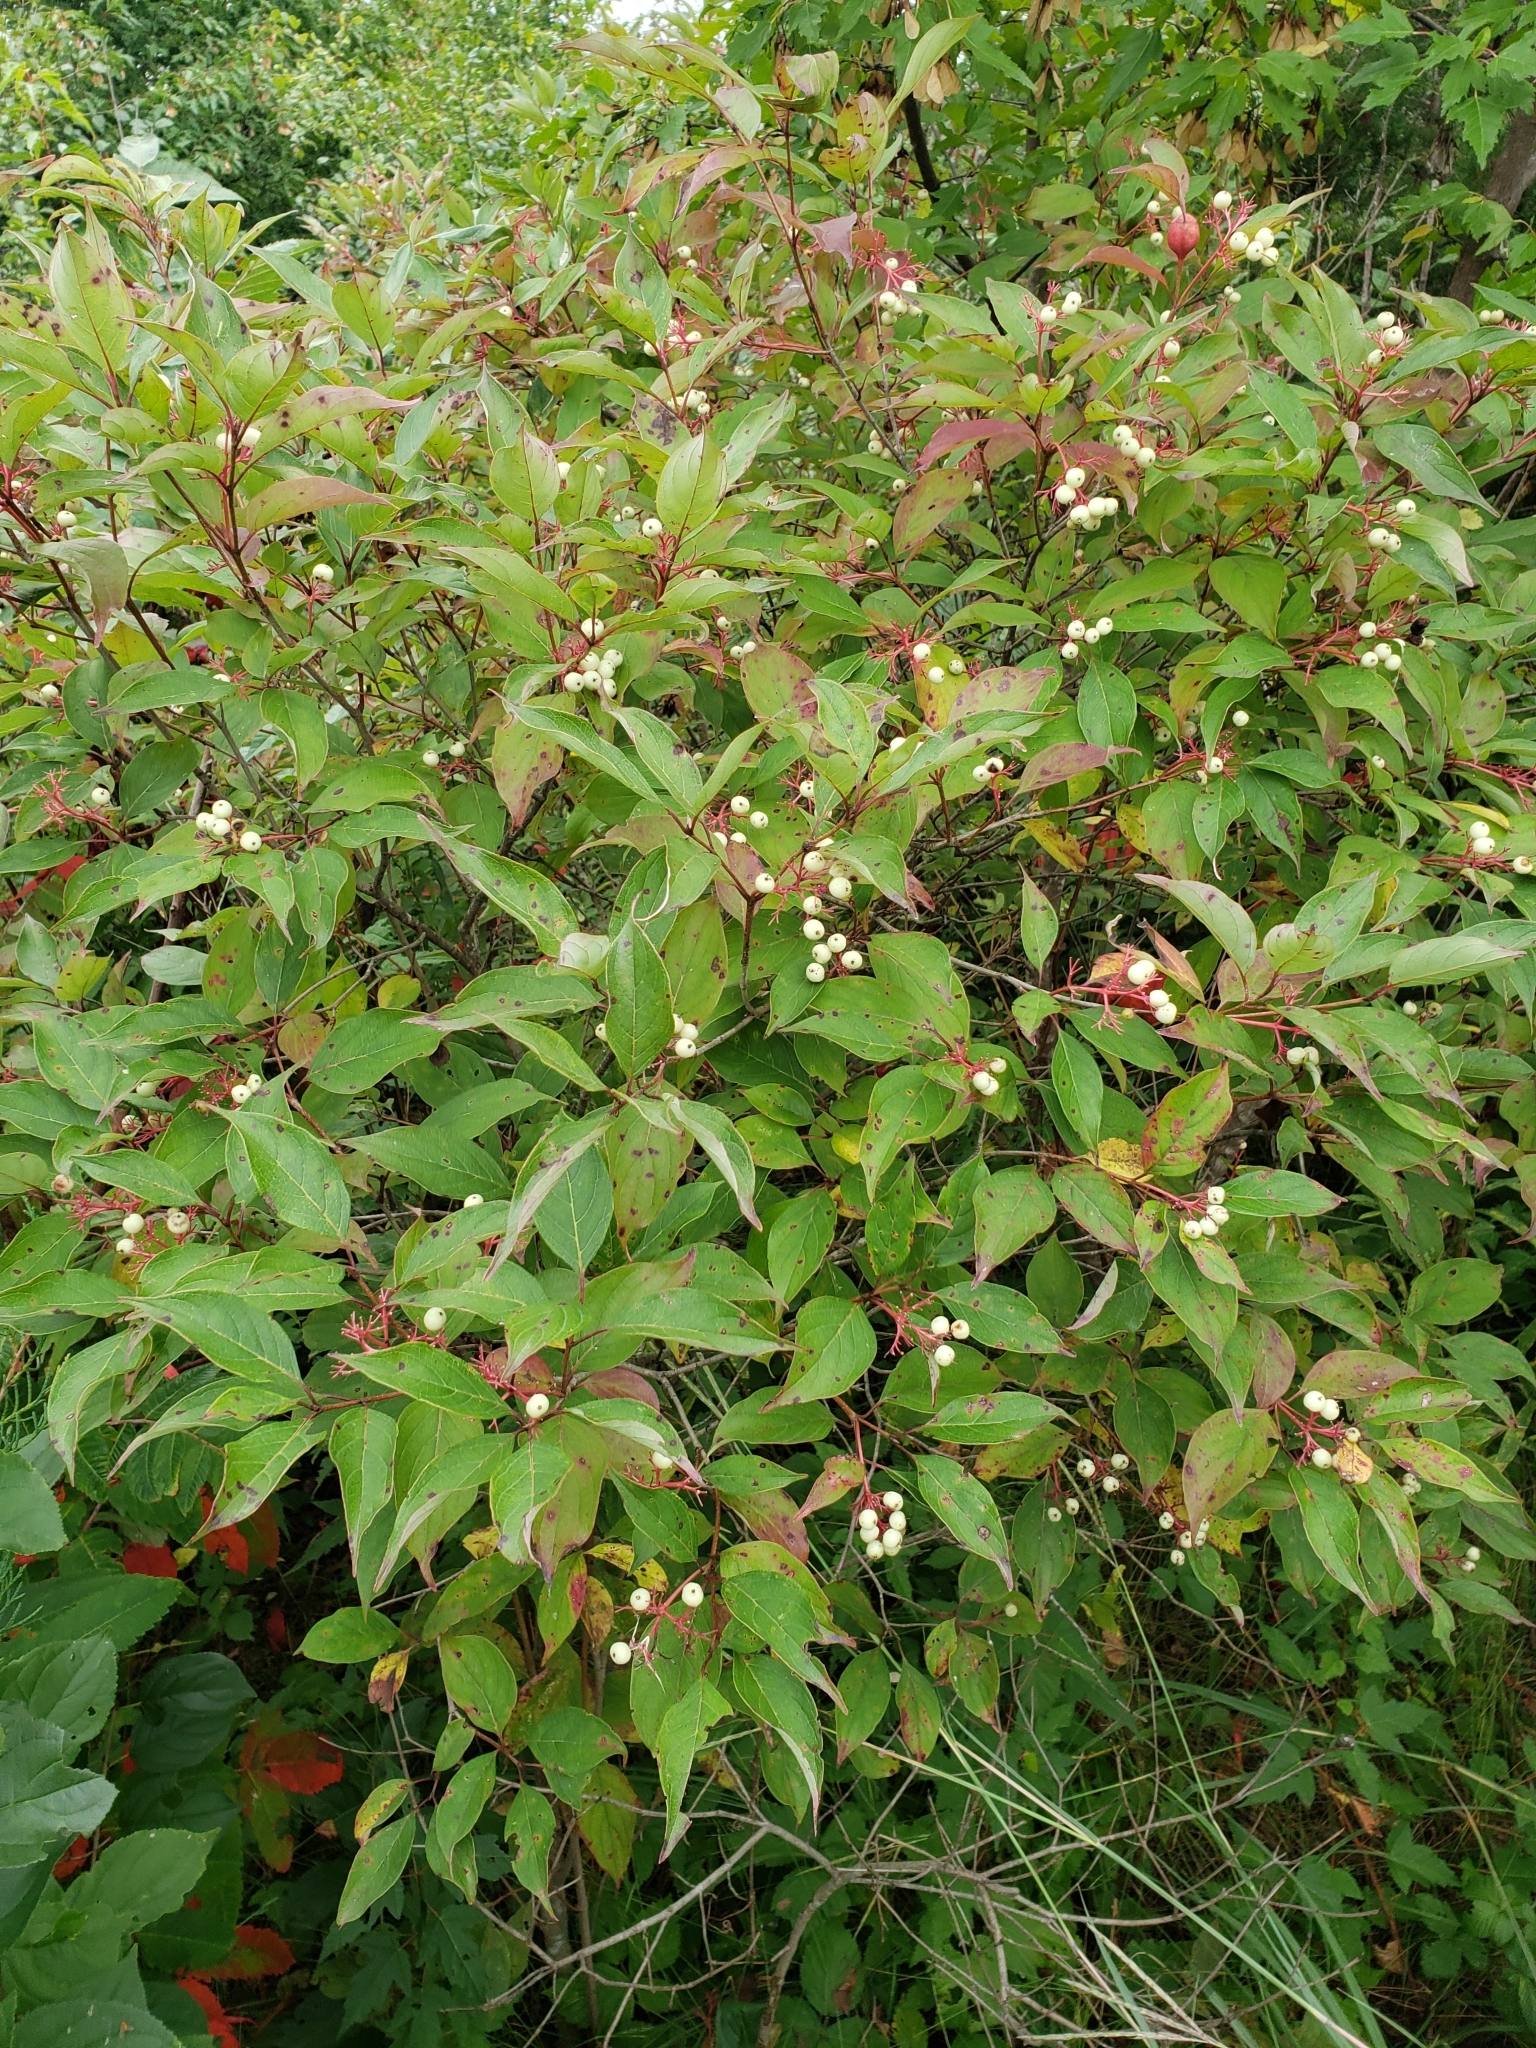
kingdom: Plantae
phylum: Tracheophyta
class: Magnoliopsida
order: Cornales
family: Cornaceae
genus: Cornus
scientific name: Cornus racemosa
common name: Panicled dogwood
